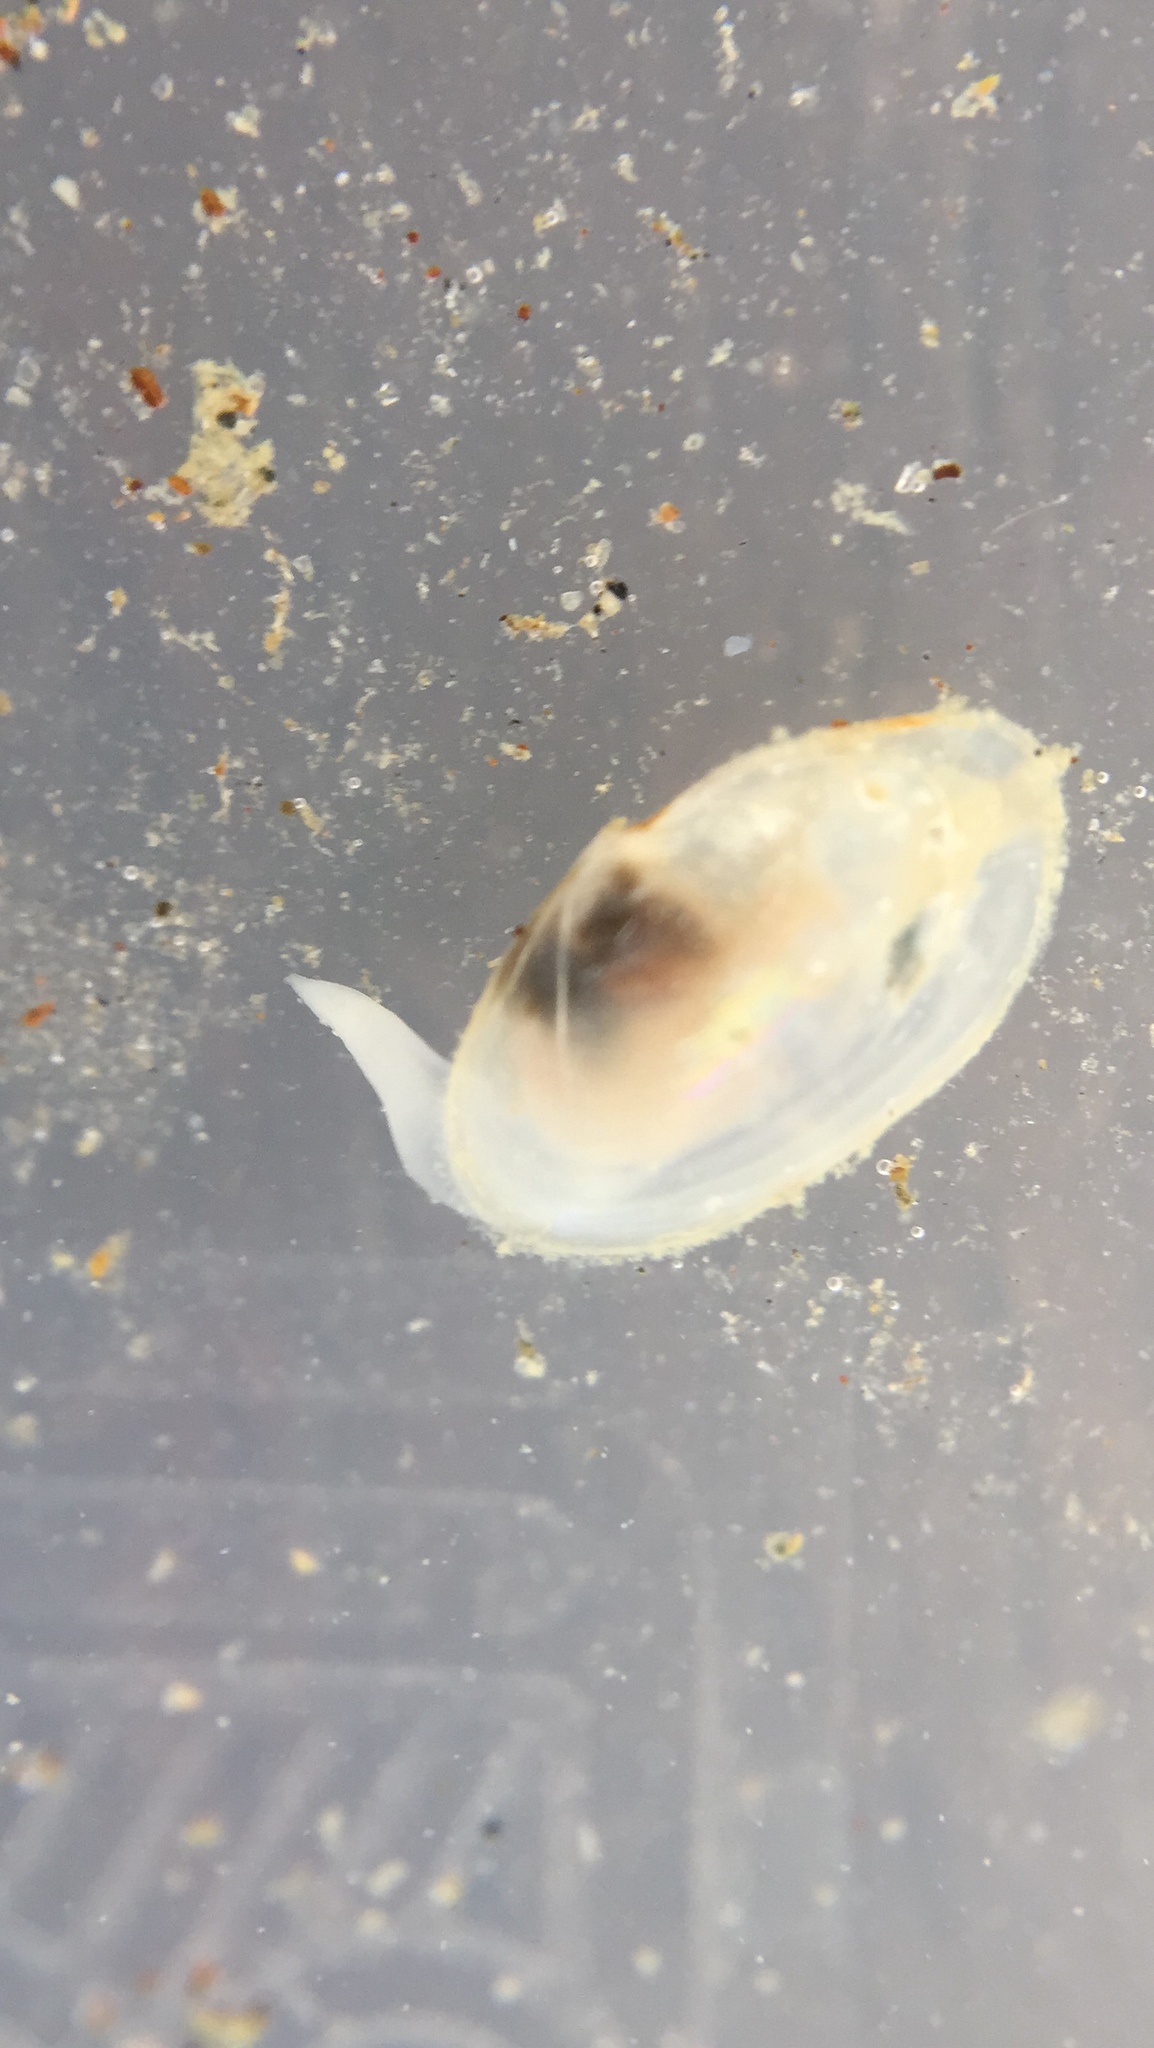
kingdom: Animalia
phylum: Mollusca
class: Bivalvia
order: Cardiida
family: Semelidae
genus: Theora
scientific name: Theora lubrica
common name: Asian semele
